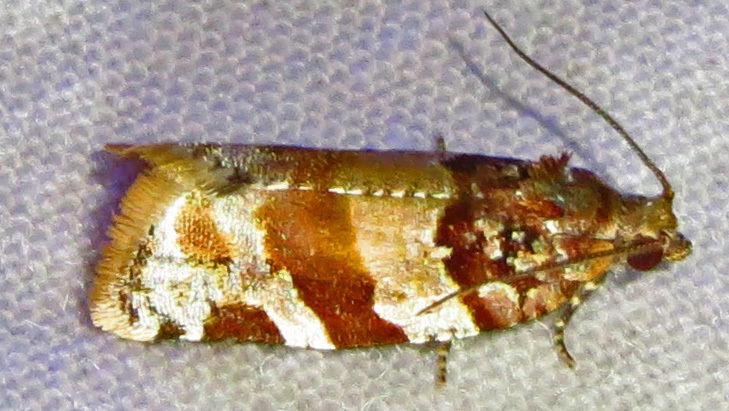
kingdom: Animalia
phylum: Arthropoda
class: Insecta
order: Lepidoptera
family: Tortricidae
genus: Argyrotaenia
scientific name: Argyrotaenia kimballi
